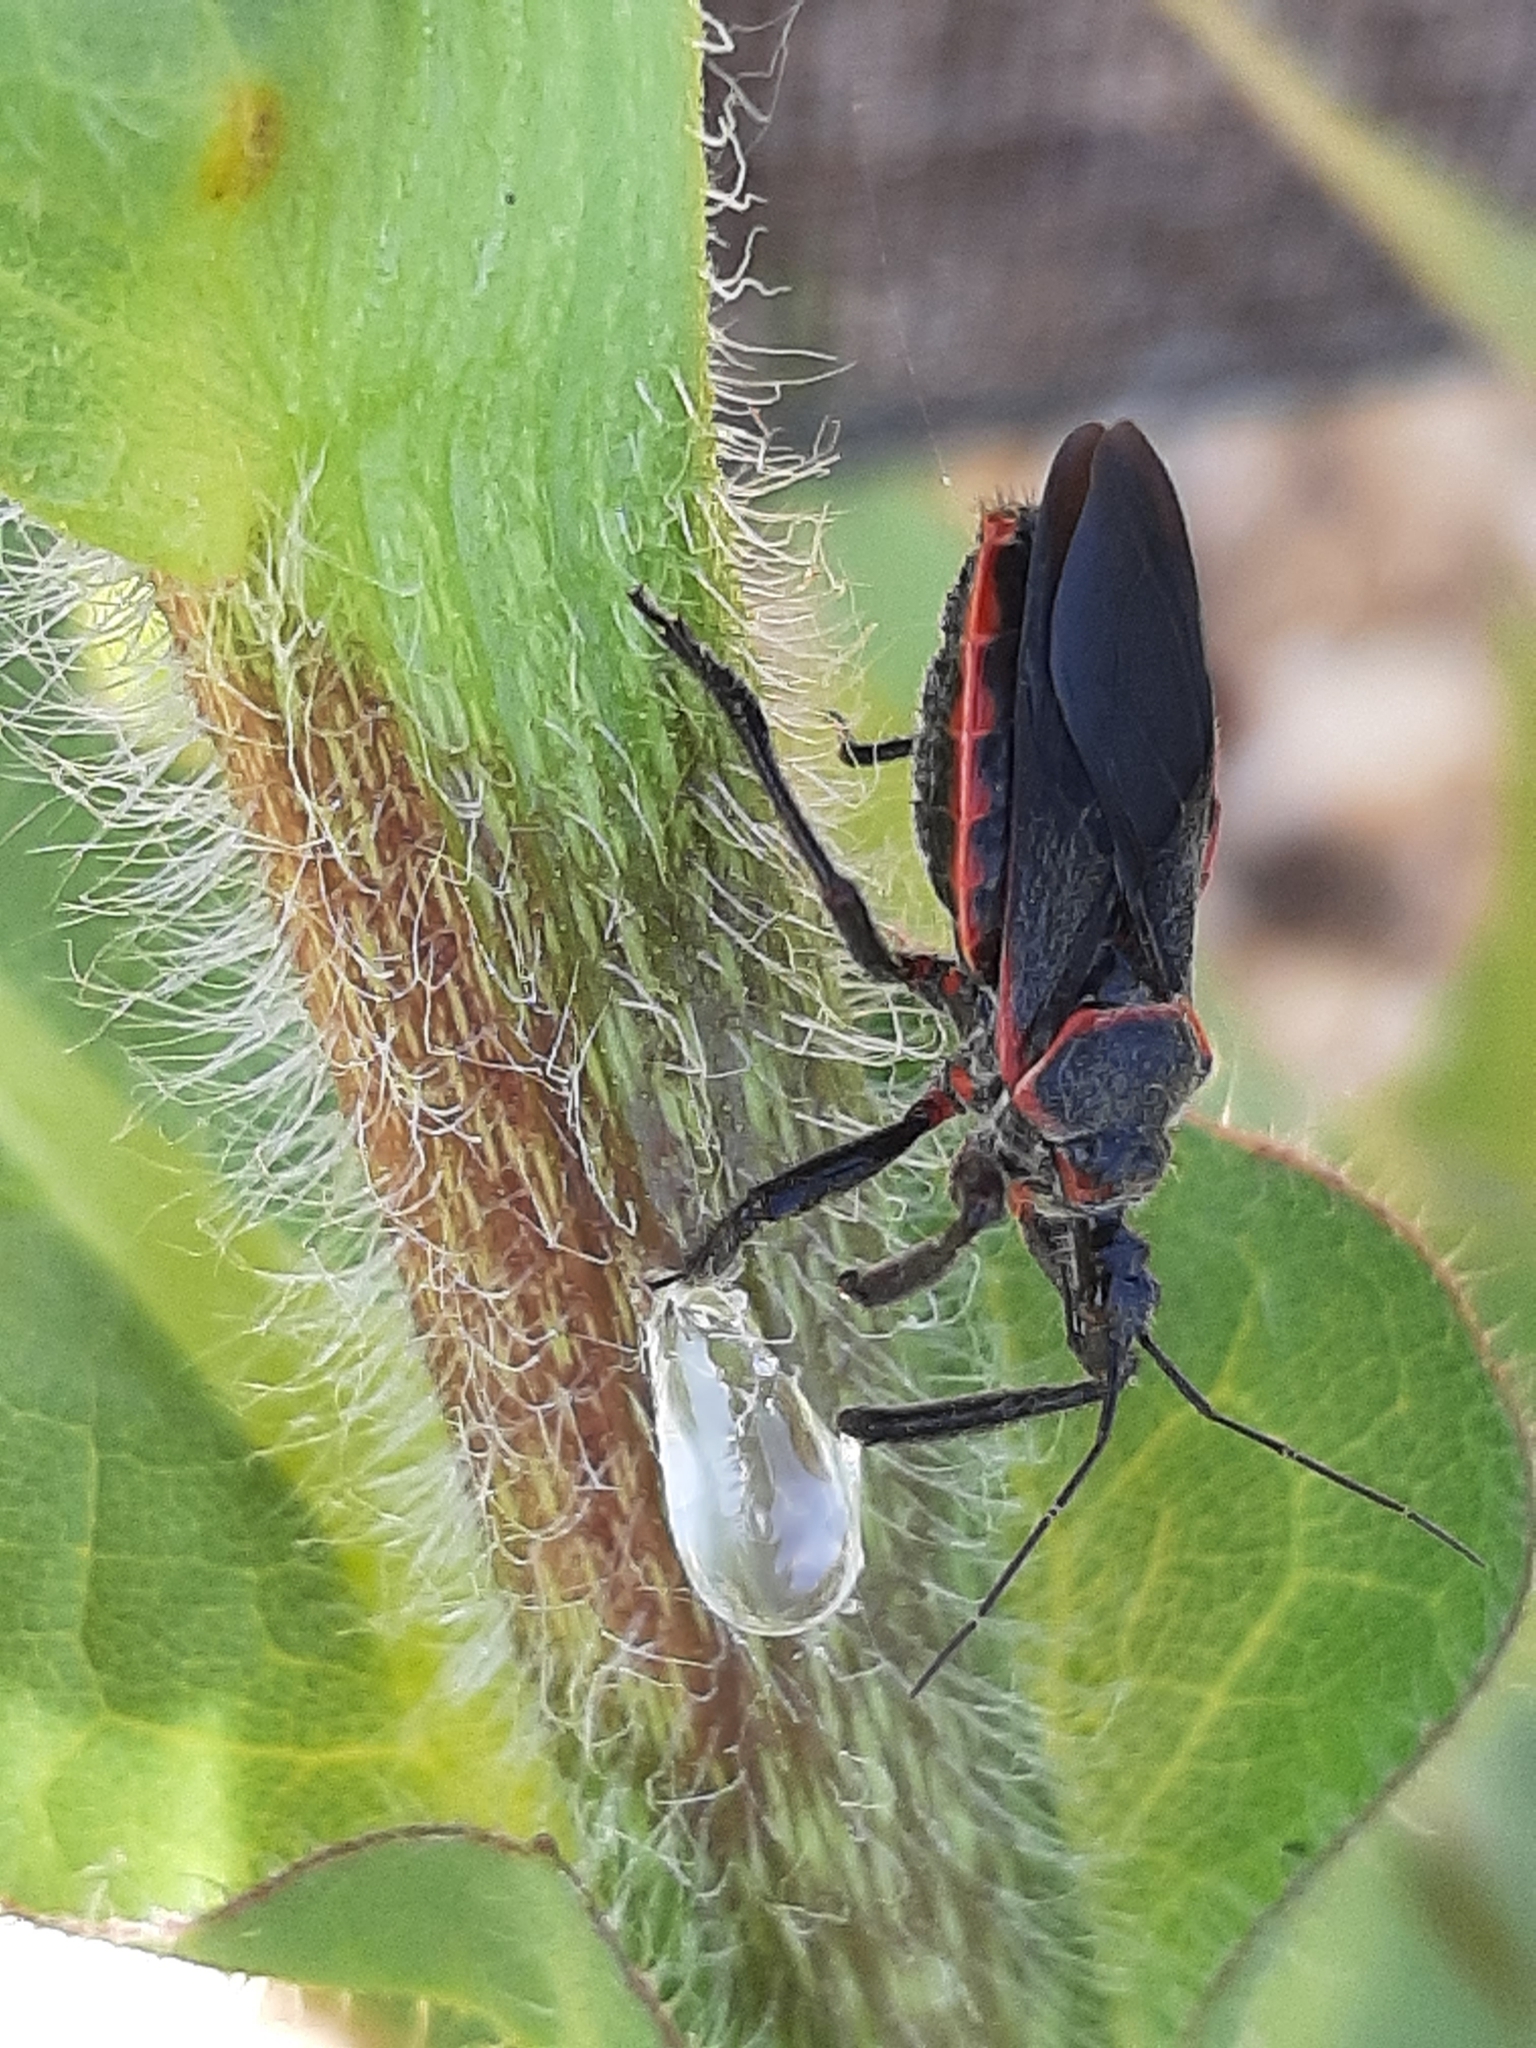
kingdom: Animalia
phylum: Arthropoda
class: Insecta
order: Hemiptera
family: Reduviidae
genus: Apiomerus
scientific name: Apiomerus crassipes
